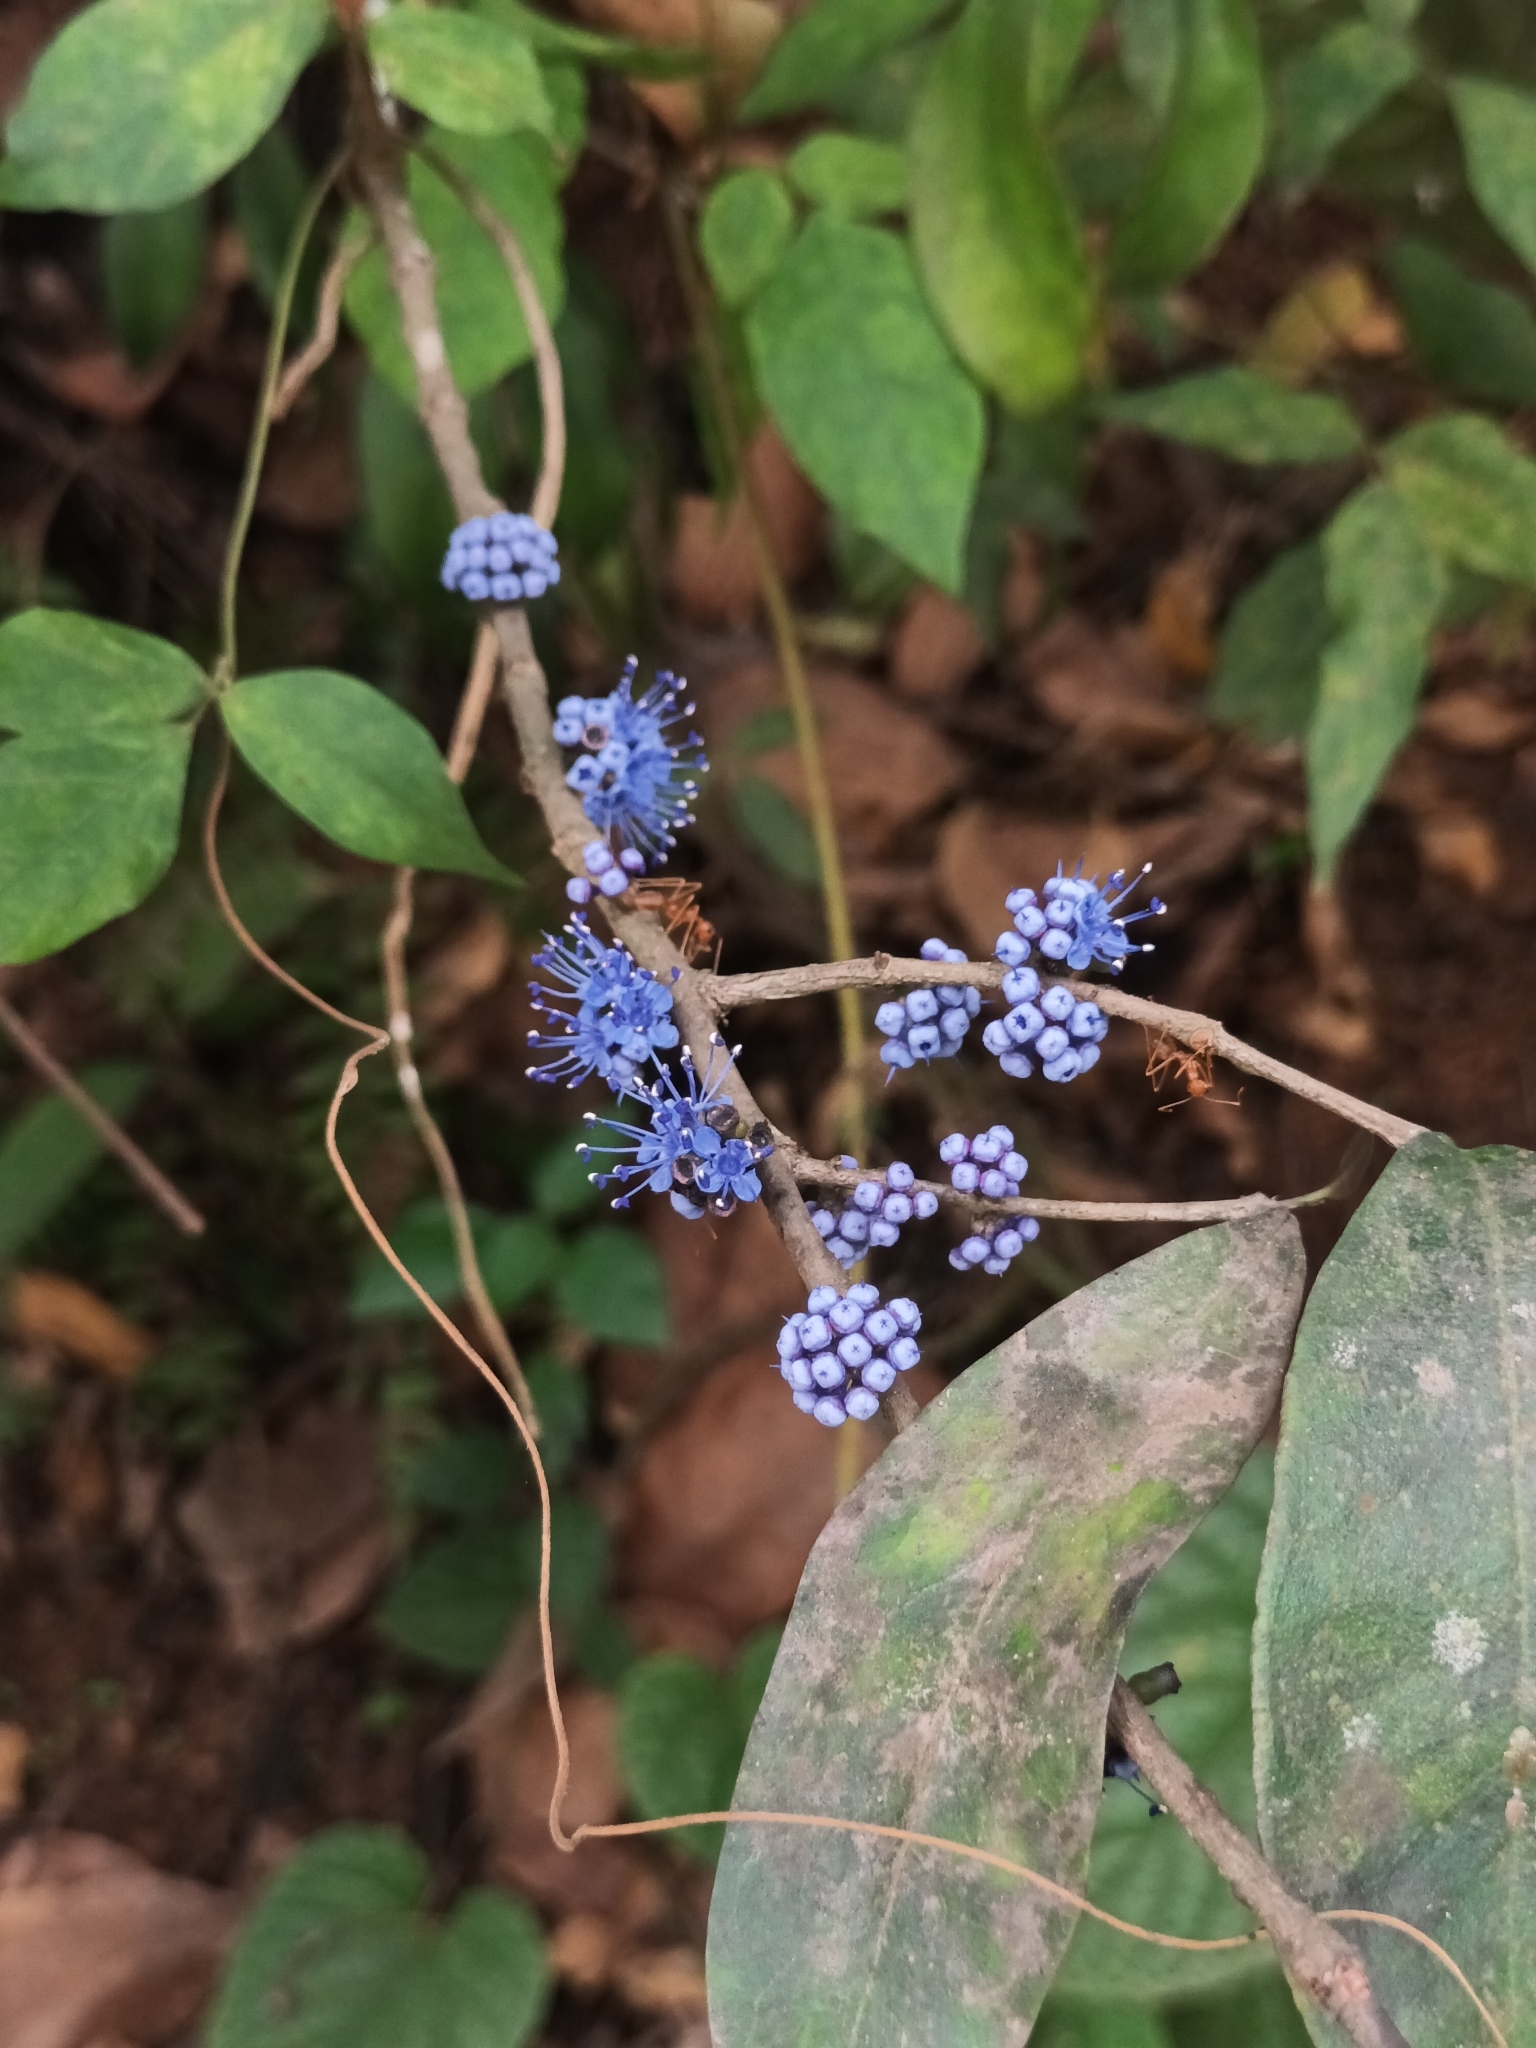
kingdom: Plantae
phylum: Tracheophyta
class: Magnoliopsida
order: Myrtales
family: Melastomataceae
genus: Memecylon
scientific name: Memecylon umbellatum
